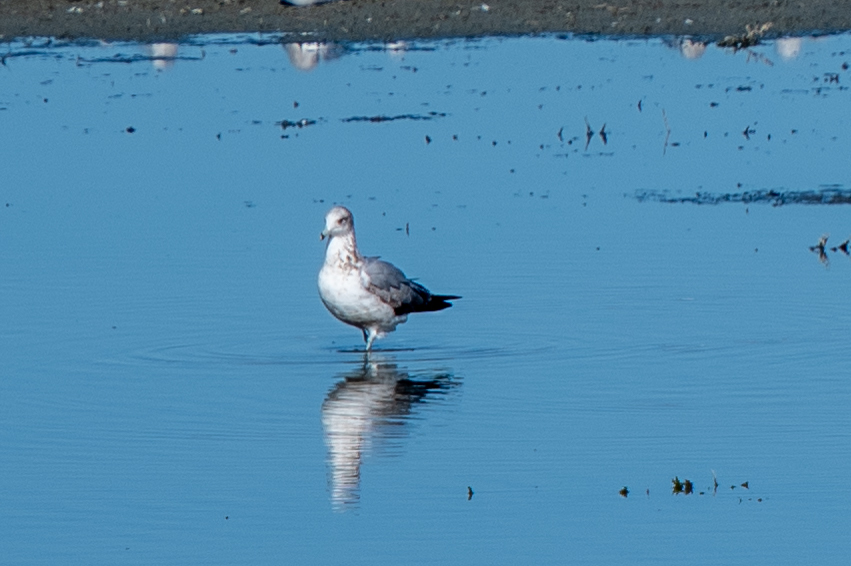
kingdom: Animalia
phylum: Chordata
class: Aves
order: Charadriiformes
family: Laridae
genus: Larus
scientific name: Larus californicus
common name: California gull
